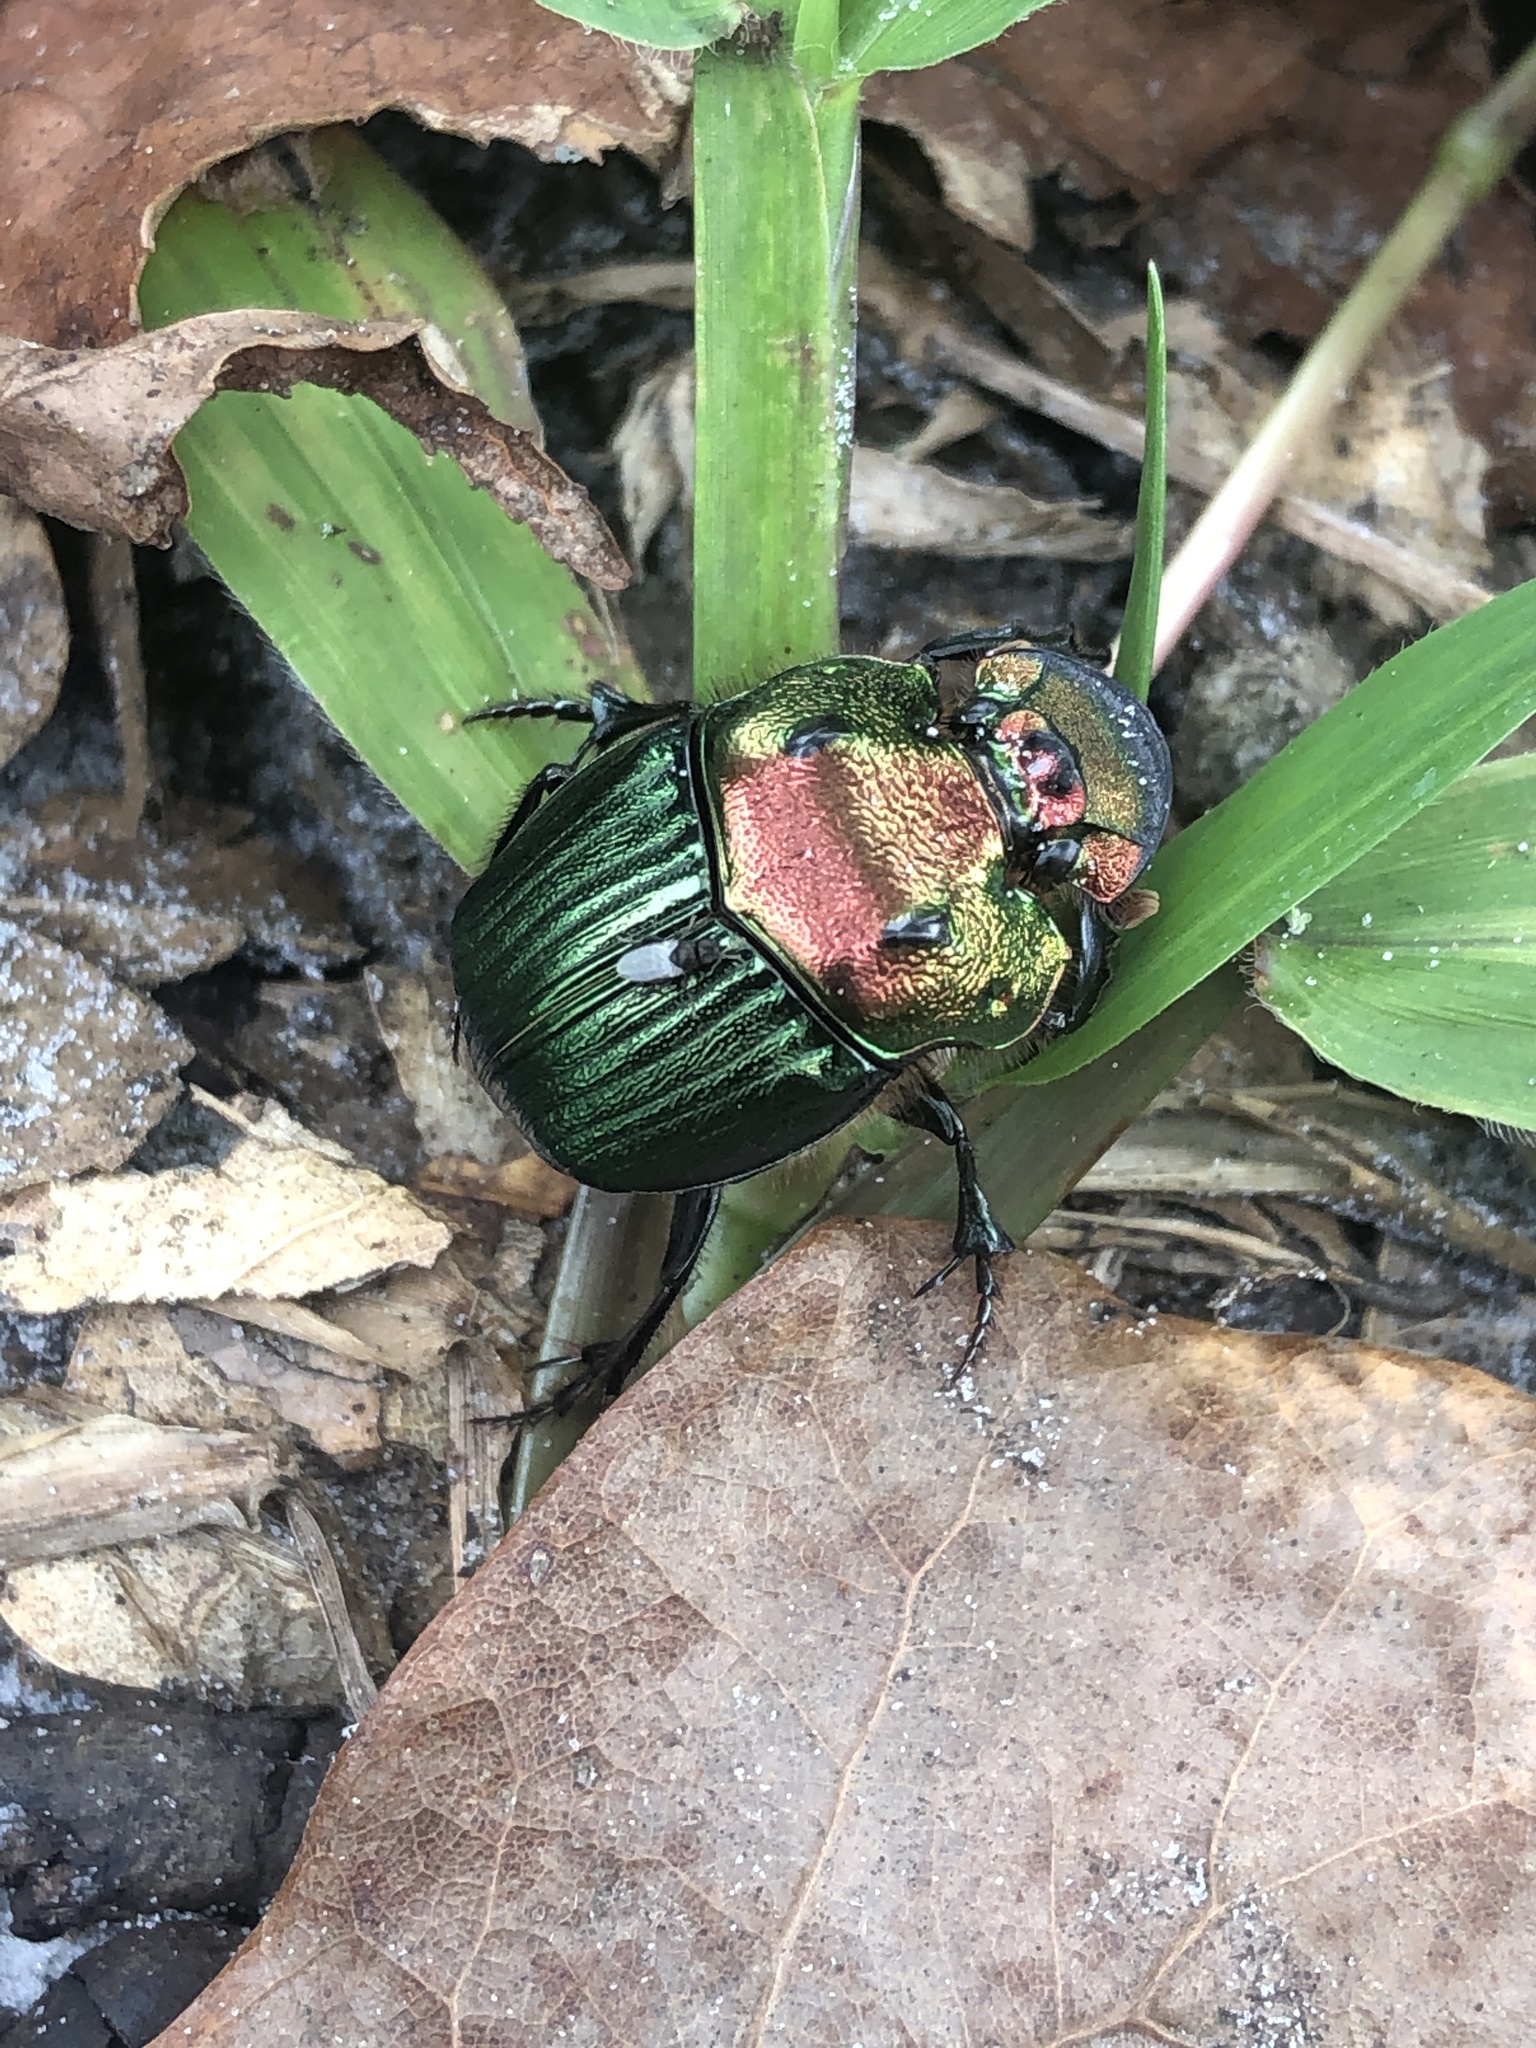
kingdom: Animalia
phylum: Arthropoda
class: Insecta
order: Coleoptera
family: Scarabaeidae
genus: Phanaeus
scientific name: Phanaeus igneus
